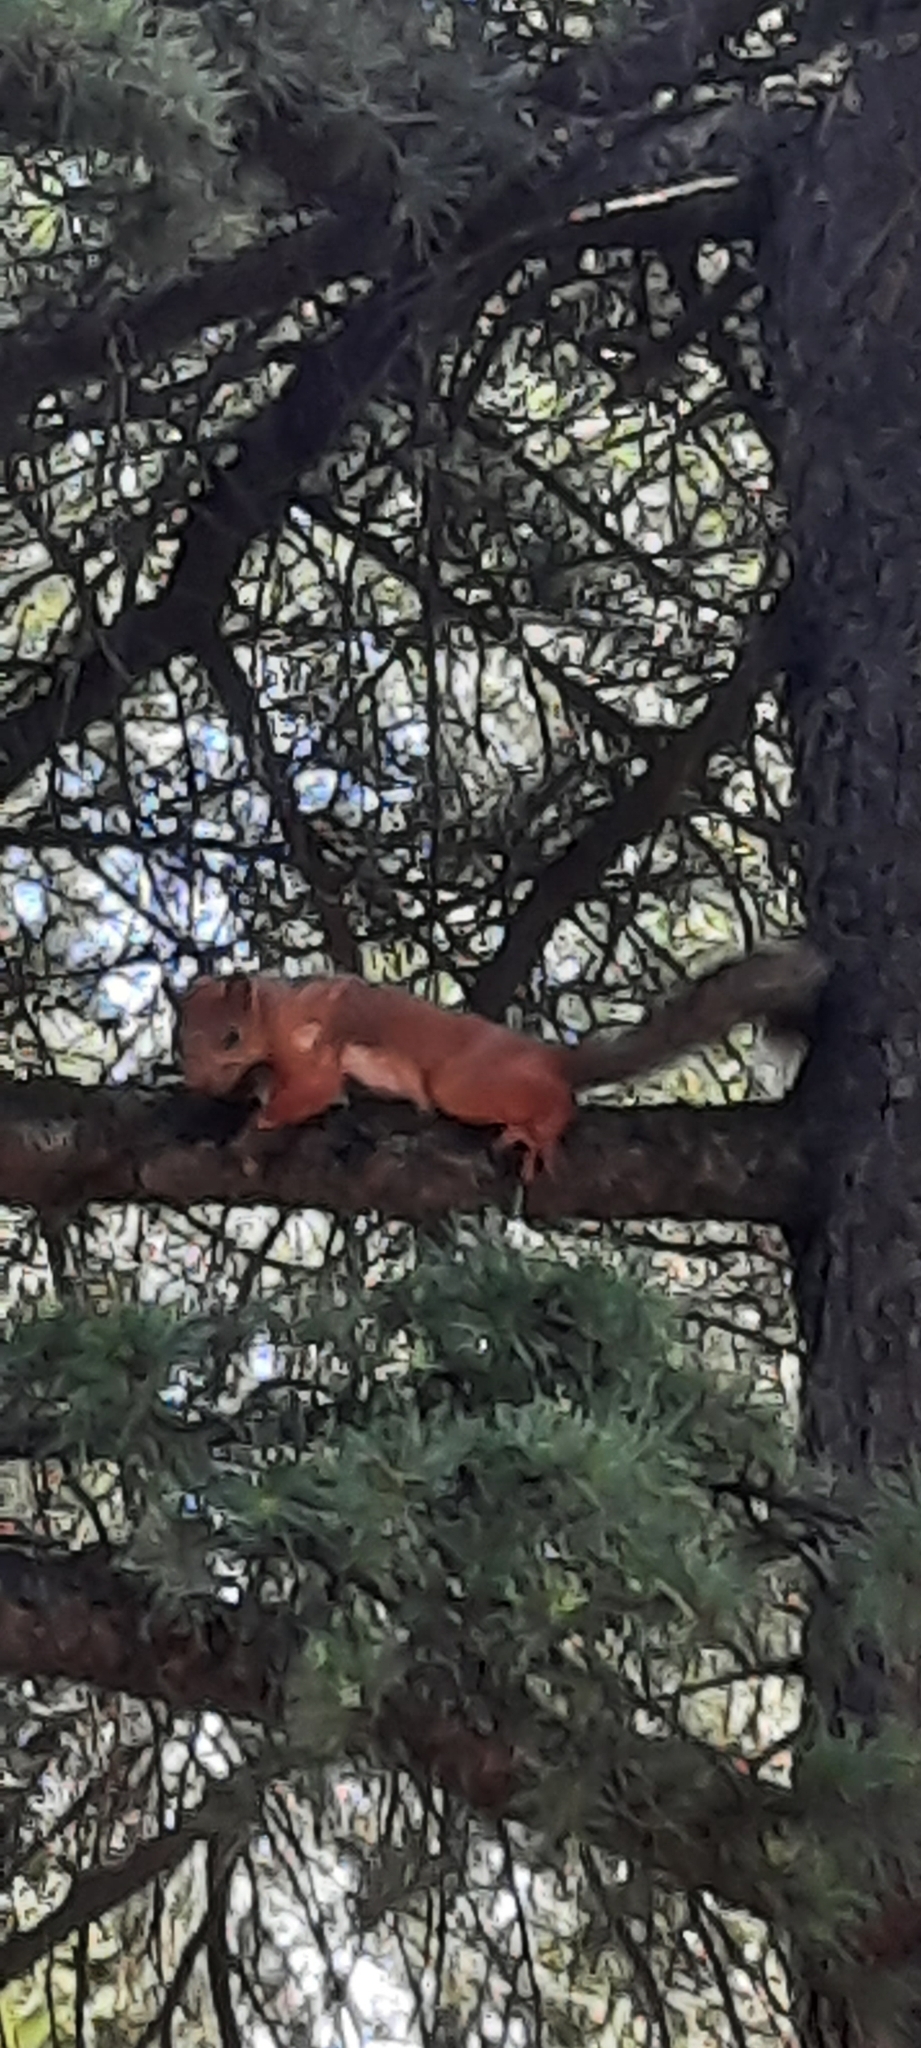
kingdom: Animalia
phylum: Chordata
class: Mammalia
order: Rodentia
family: Sciuridae
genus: Sciurus
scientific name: Sciurus vulgaris
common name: Eurasian red squirrel
